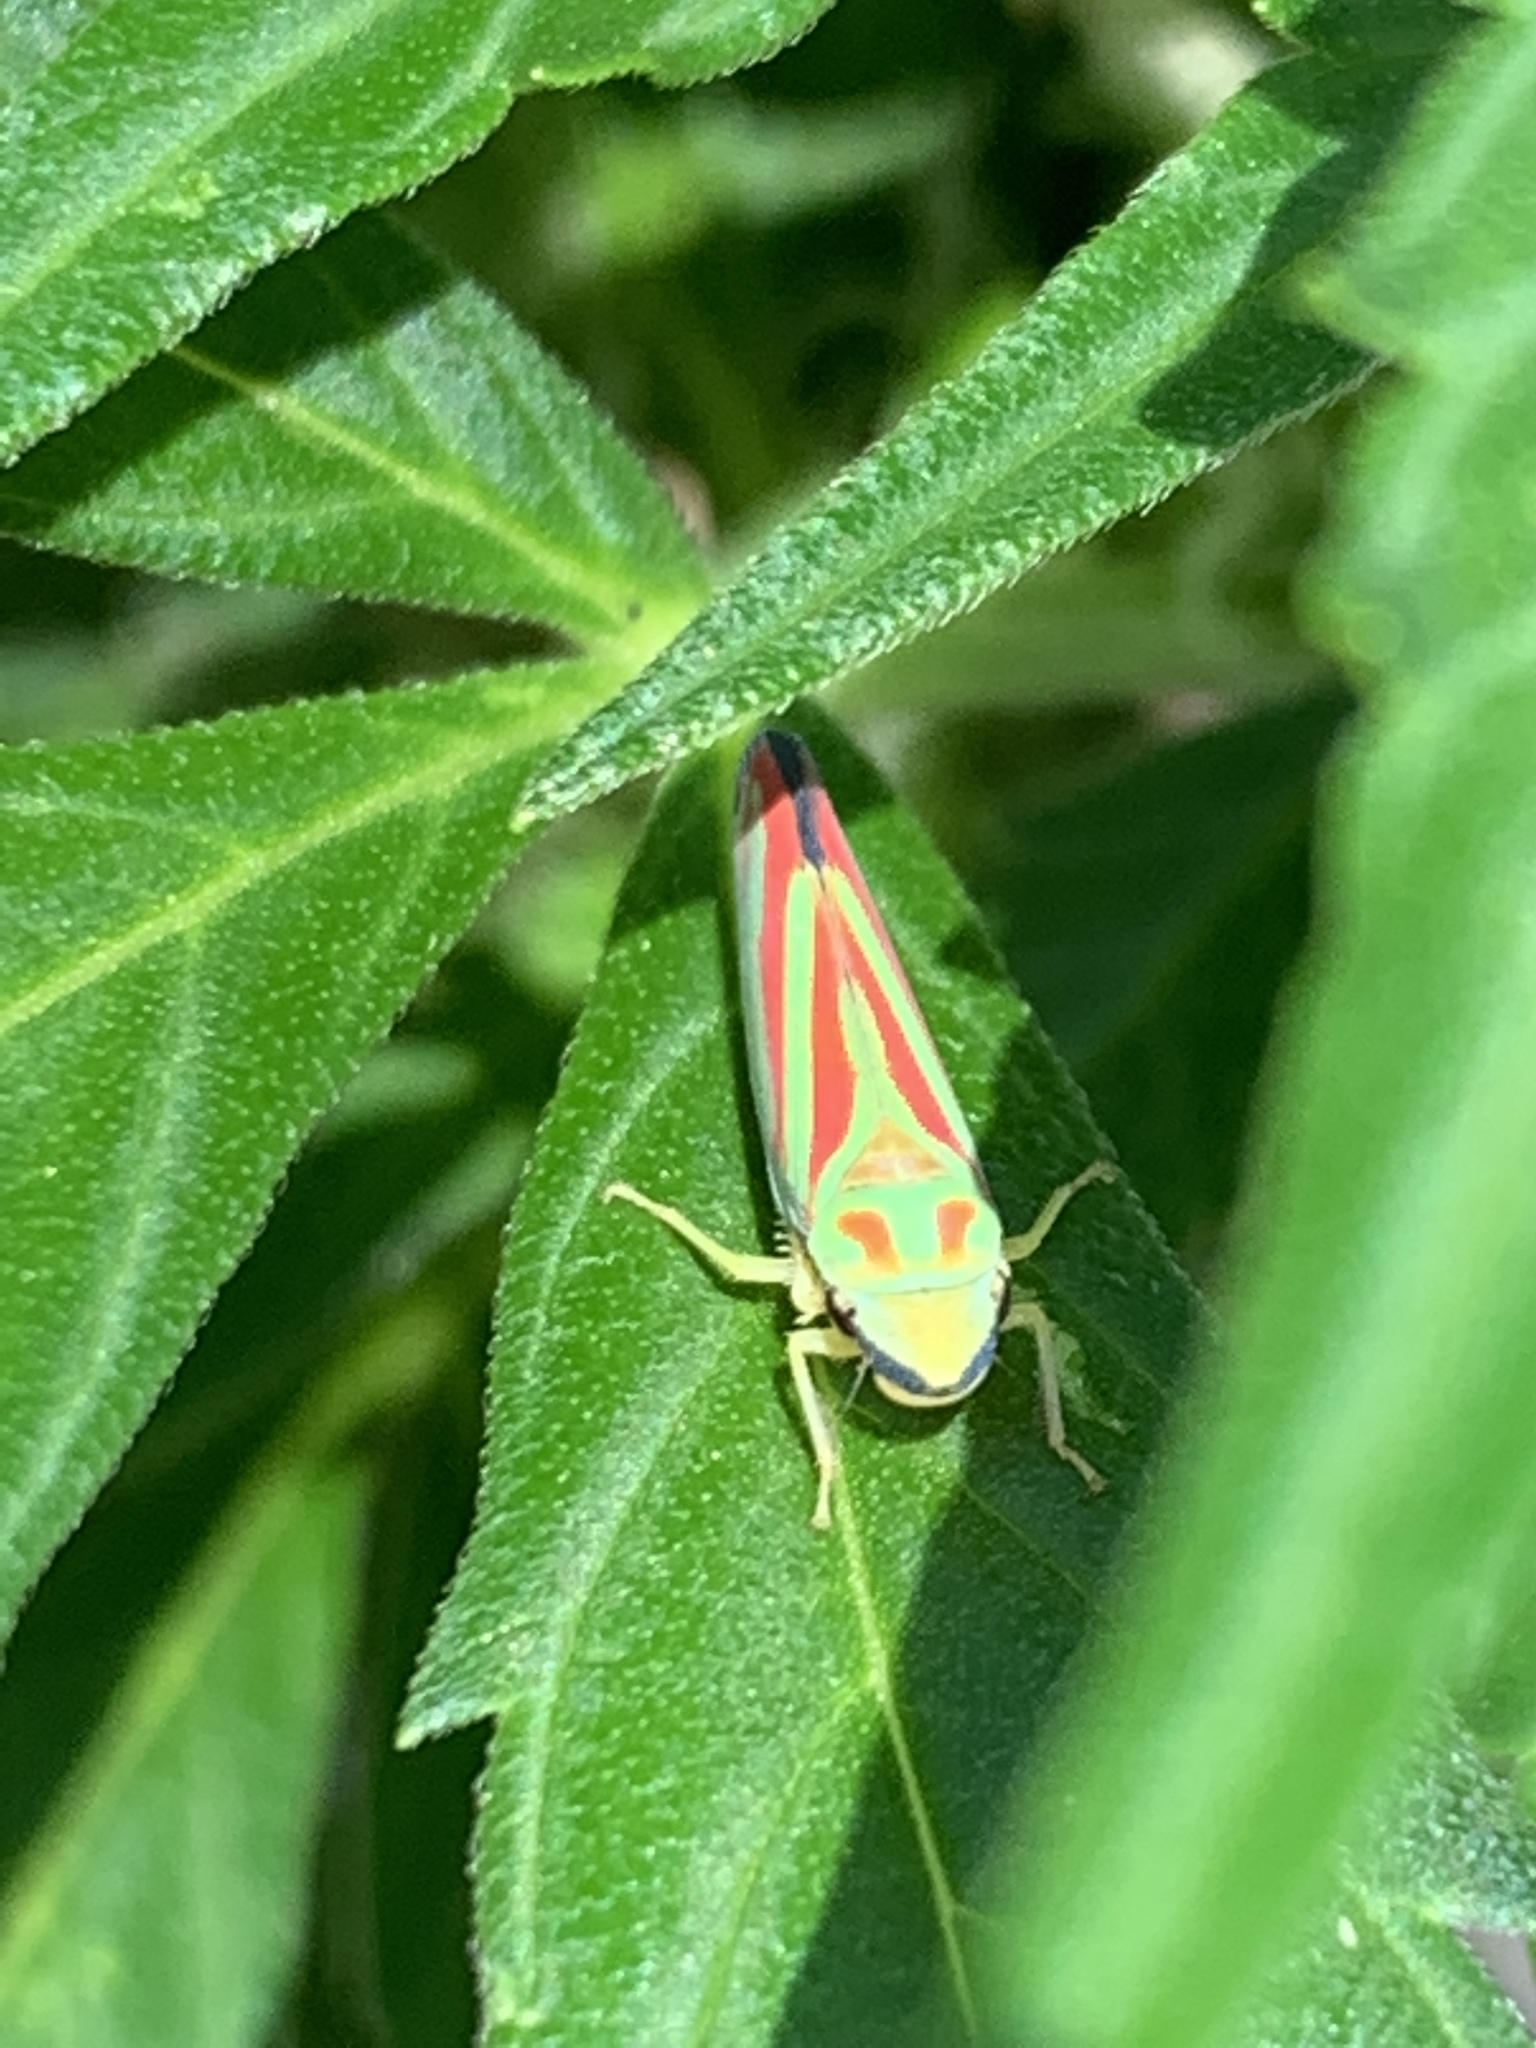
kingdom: Animalia
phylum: Arthropoda
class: Insecta
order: Hemiptera
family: Cicadellidae
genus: Graphocephala
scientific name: Graphocephala coccinea
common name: Candy-striped leafhopper
